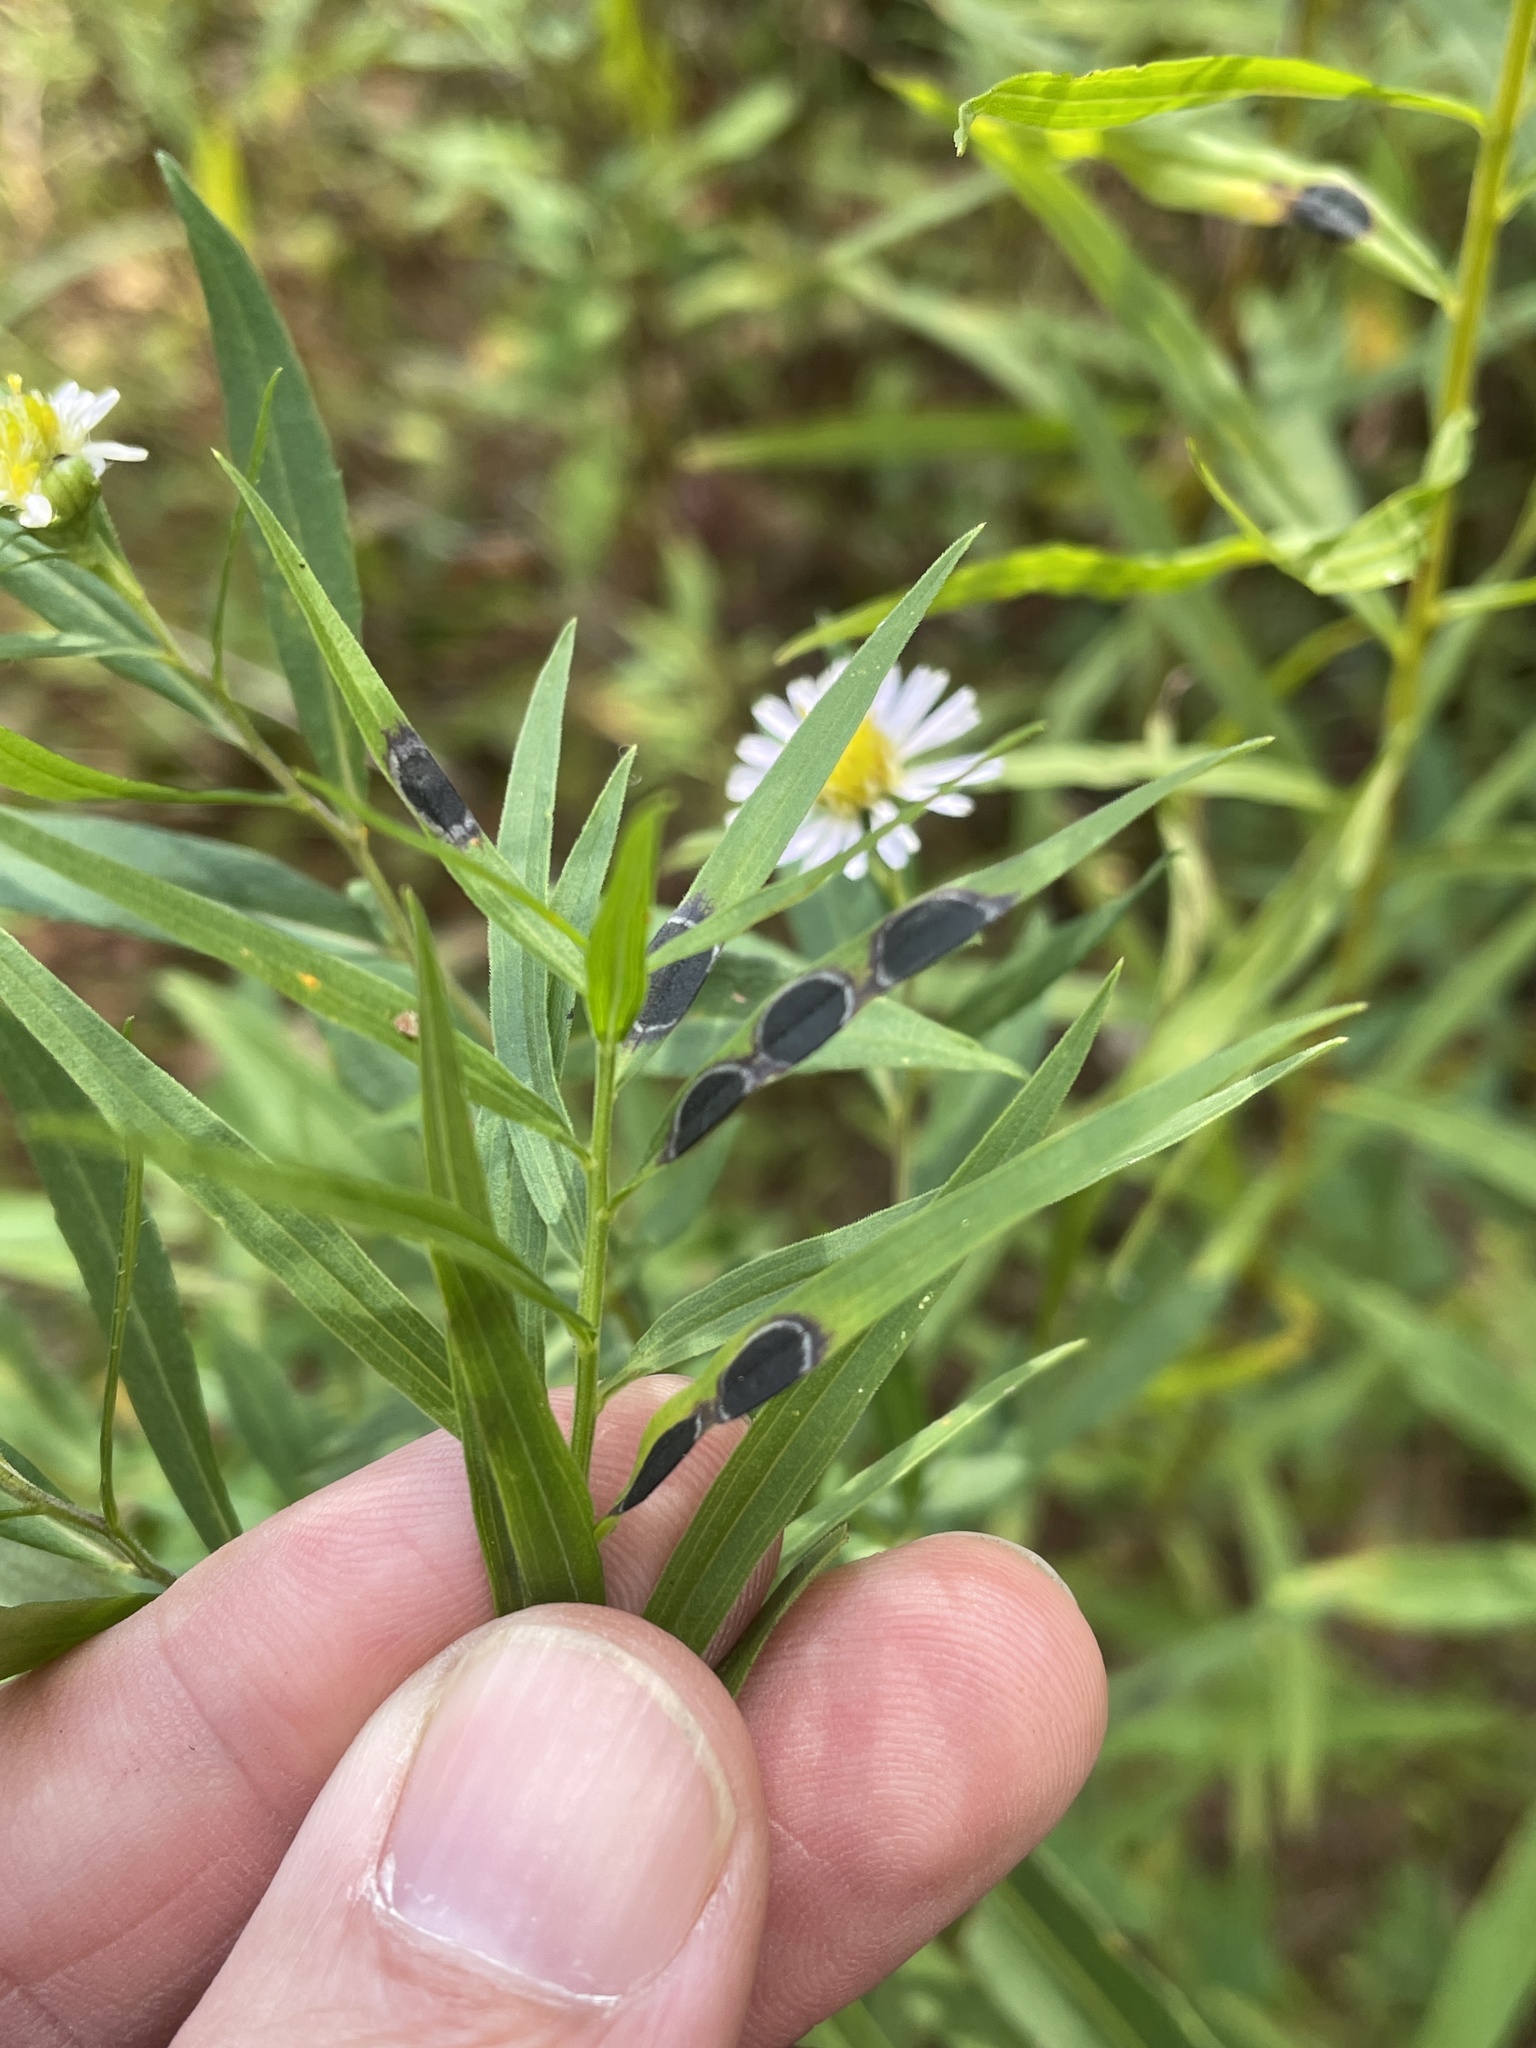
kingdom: Animalia
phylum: Arthropoda
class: Insecta
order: Diptera
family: Cecidomyiidae
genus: Asteromyia
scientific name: Asteromyia euthamiae
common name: Euthamia leaf gall midge
